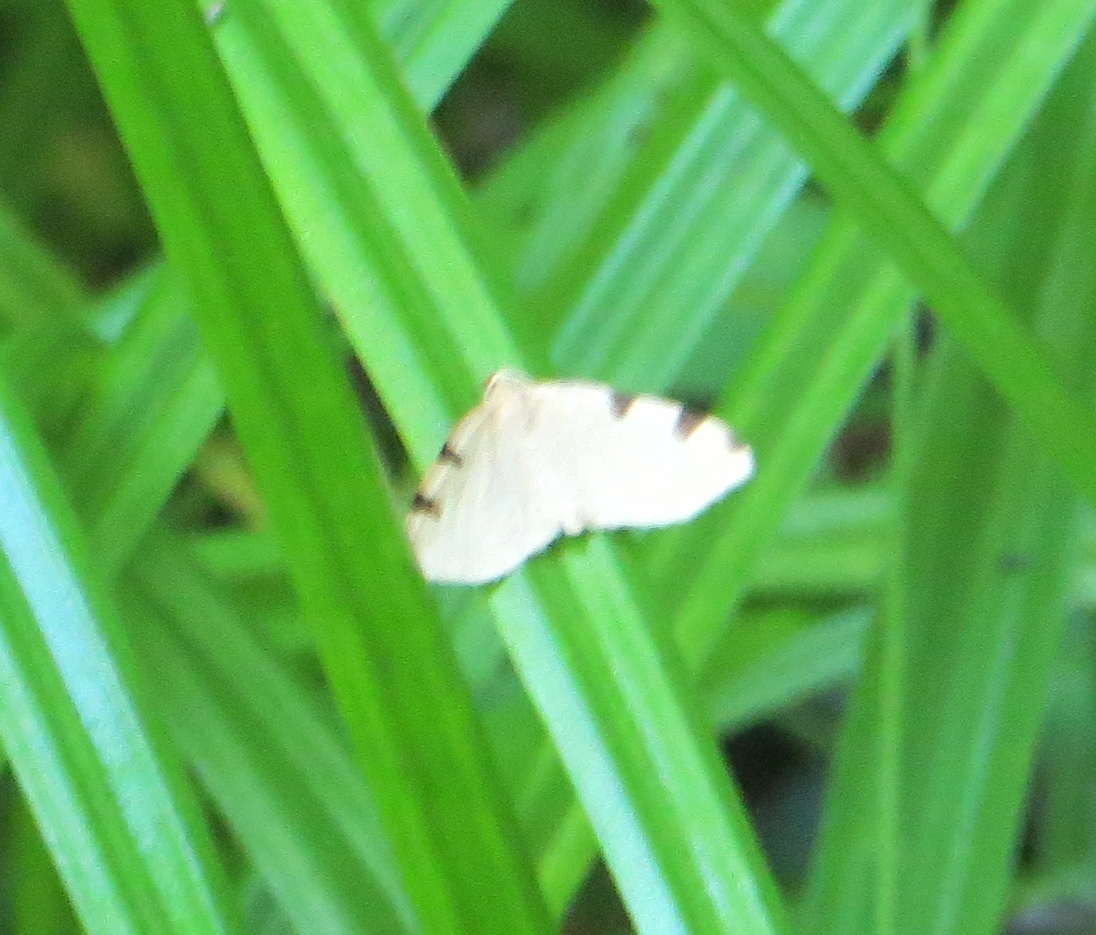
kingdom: Animalia
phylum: Arthropoda
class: Insecta
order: Lepidoptera
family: Geometridae
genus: Heterophleps
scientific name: Heterophleps triguttaria
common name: Three-spotted fillip
